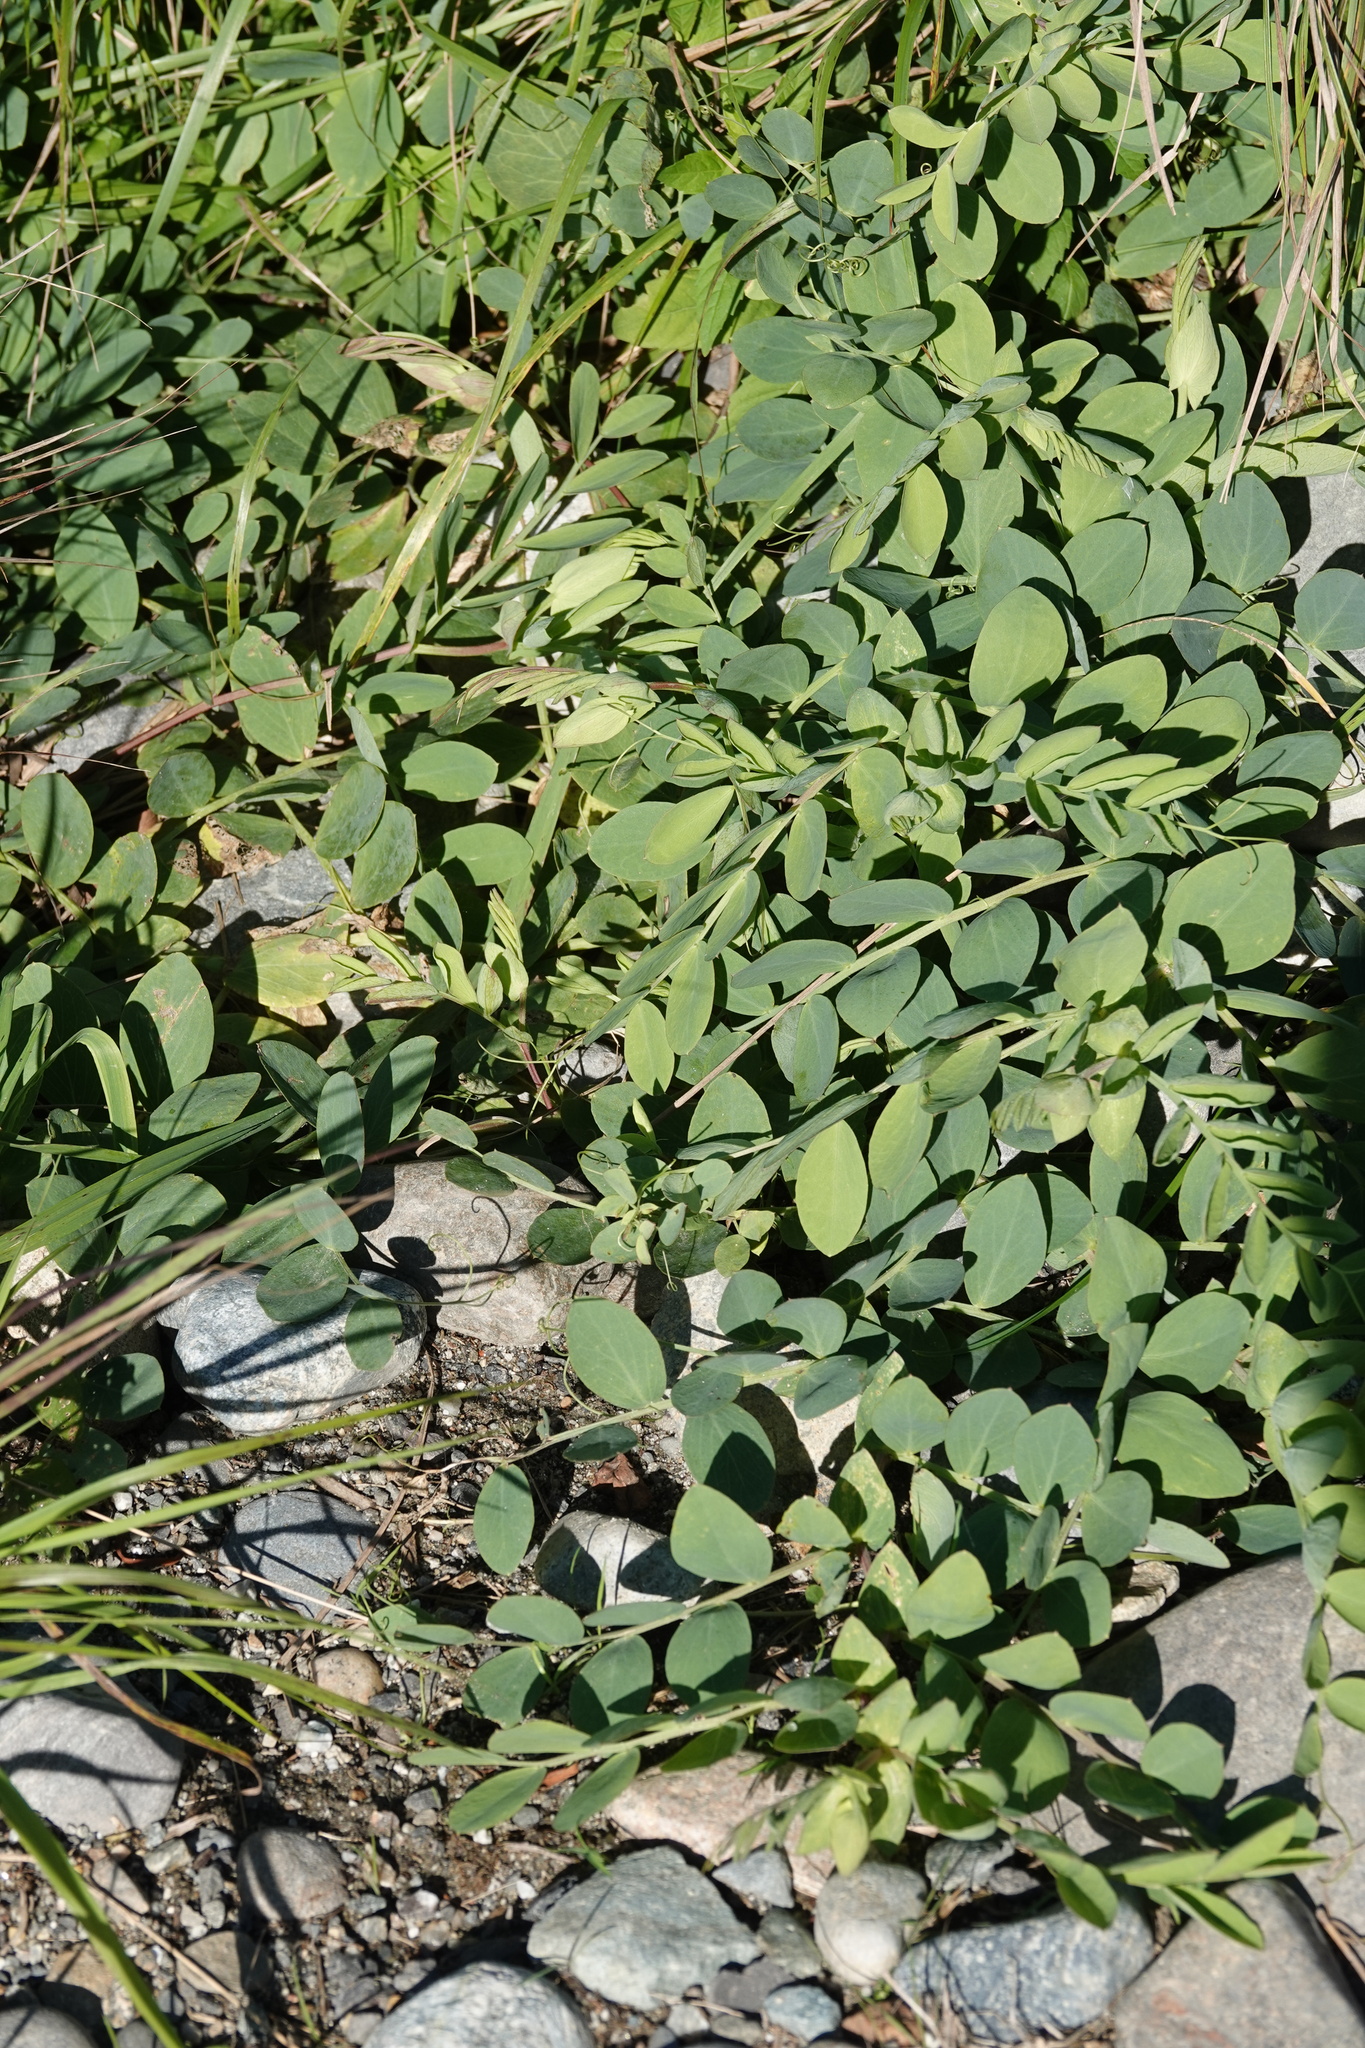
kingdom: Plantae
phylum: Tracheophyta
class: Magnoliopsida
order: Fabales
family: Fabaceae
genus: Lathyrus
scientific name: Lathyrus japonicus
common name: Sea pea
